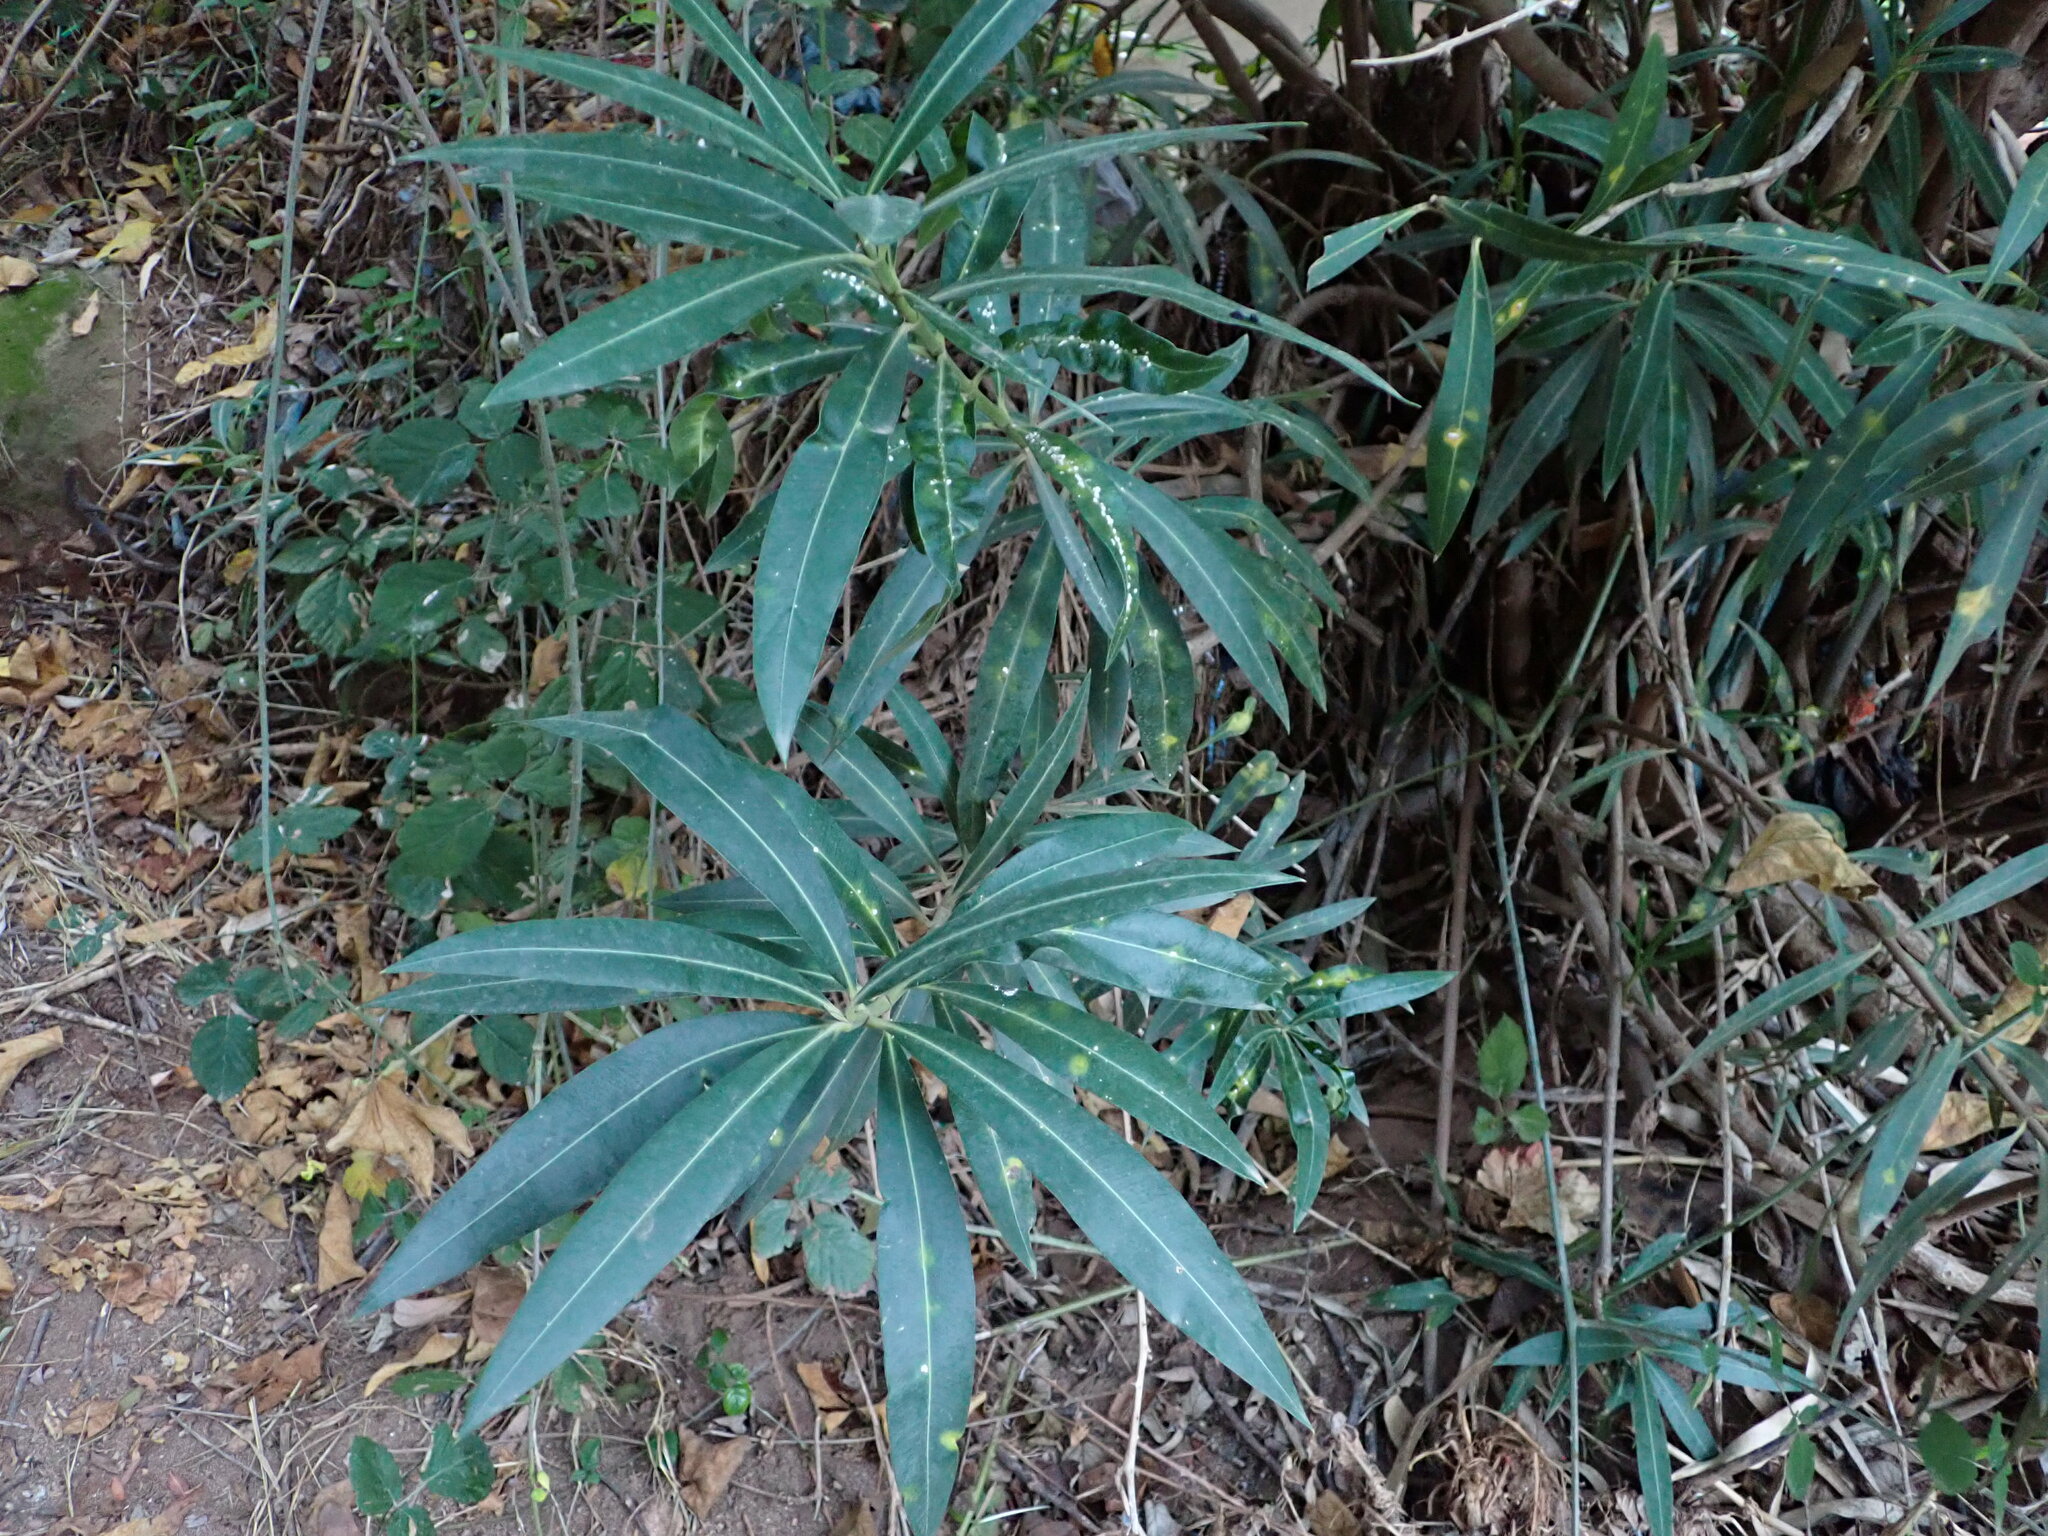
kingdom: Plantae
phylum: Tracheophyta
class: Magnoliopsida
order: Gentianales
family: Apocynaceae
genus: Nerium
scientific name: Nerium oleander
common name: Oleander
